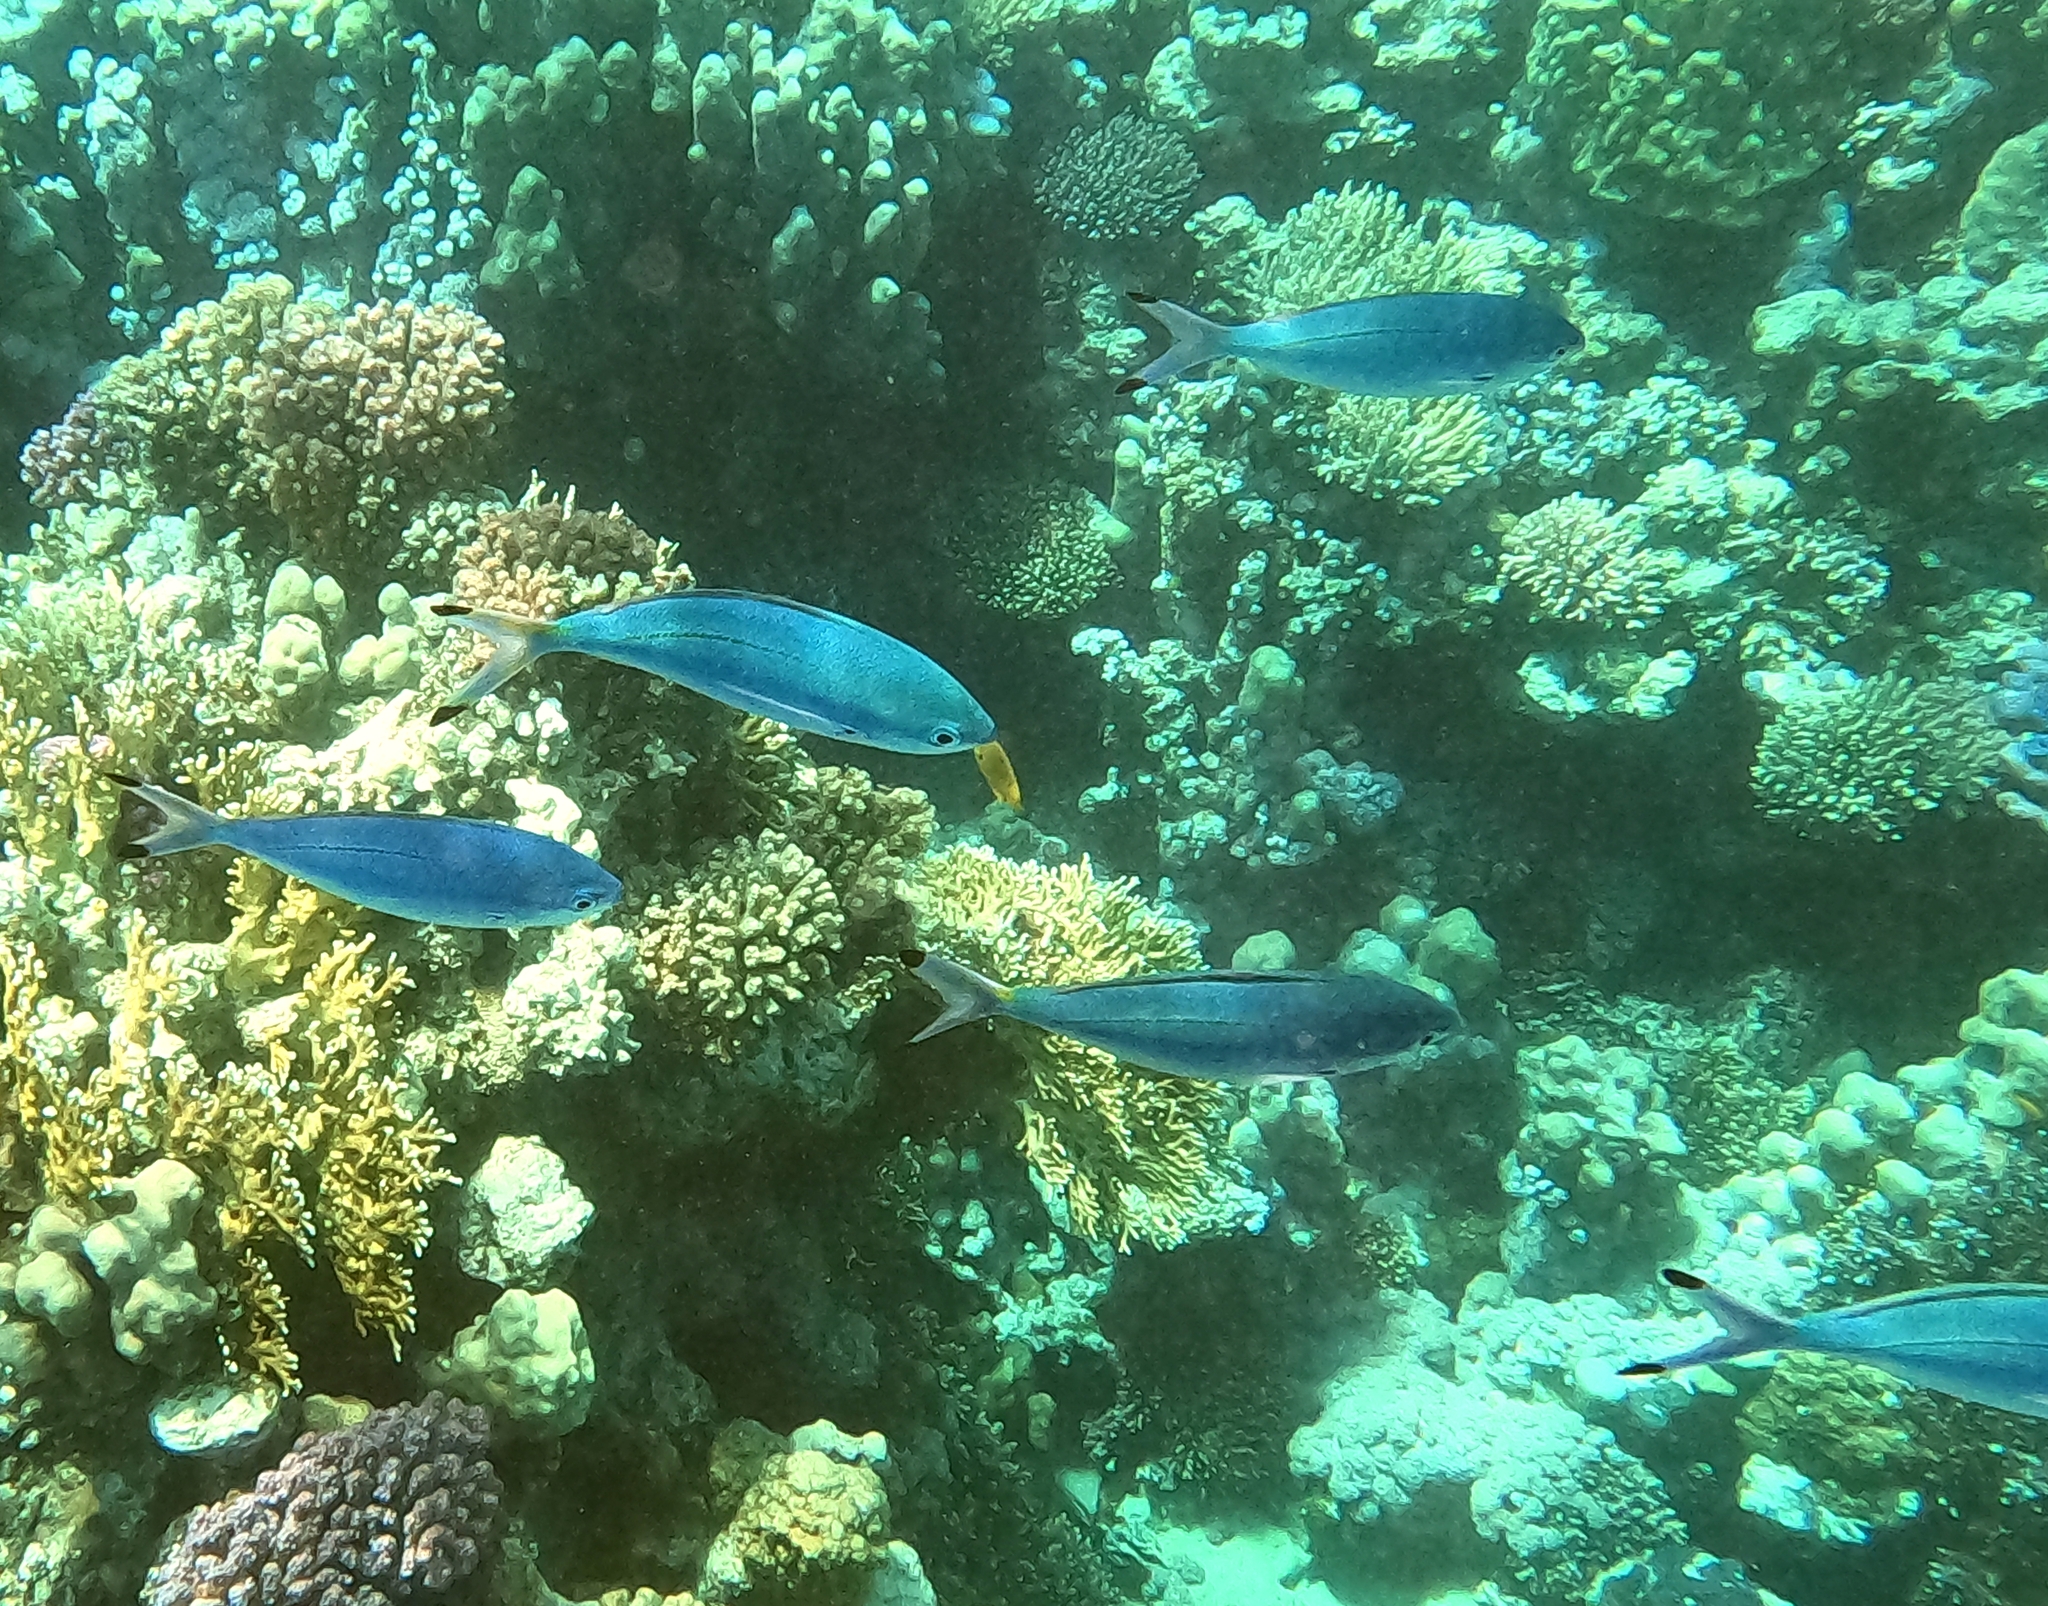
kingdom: Animalia
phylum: Chordata
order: Perciformes
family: Caesionidae
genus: Caesio
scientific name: Caesio lunaris
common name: Blue fusilier
